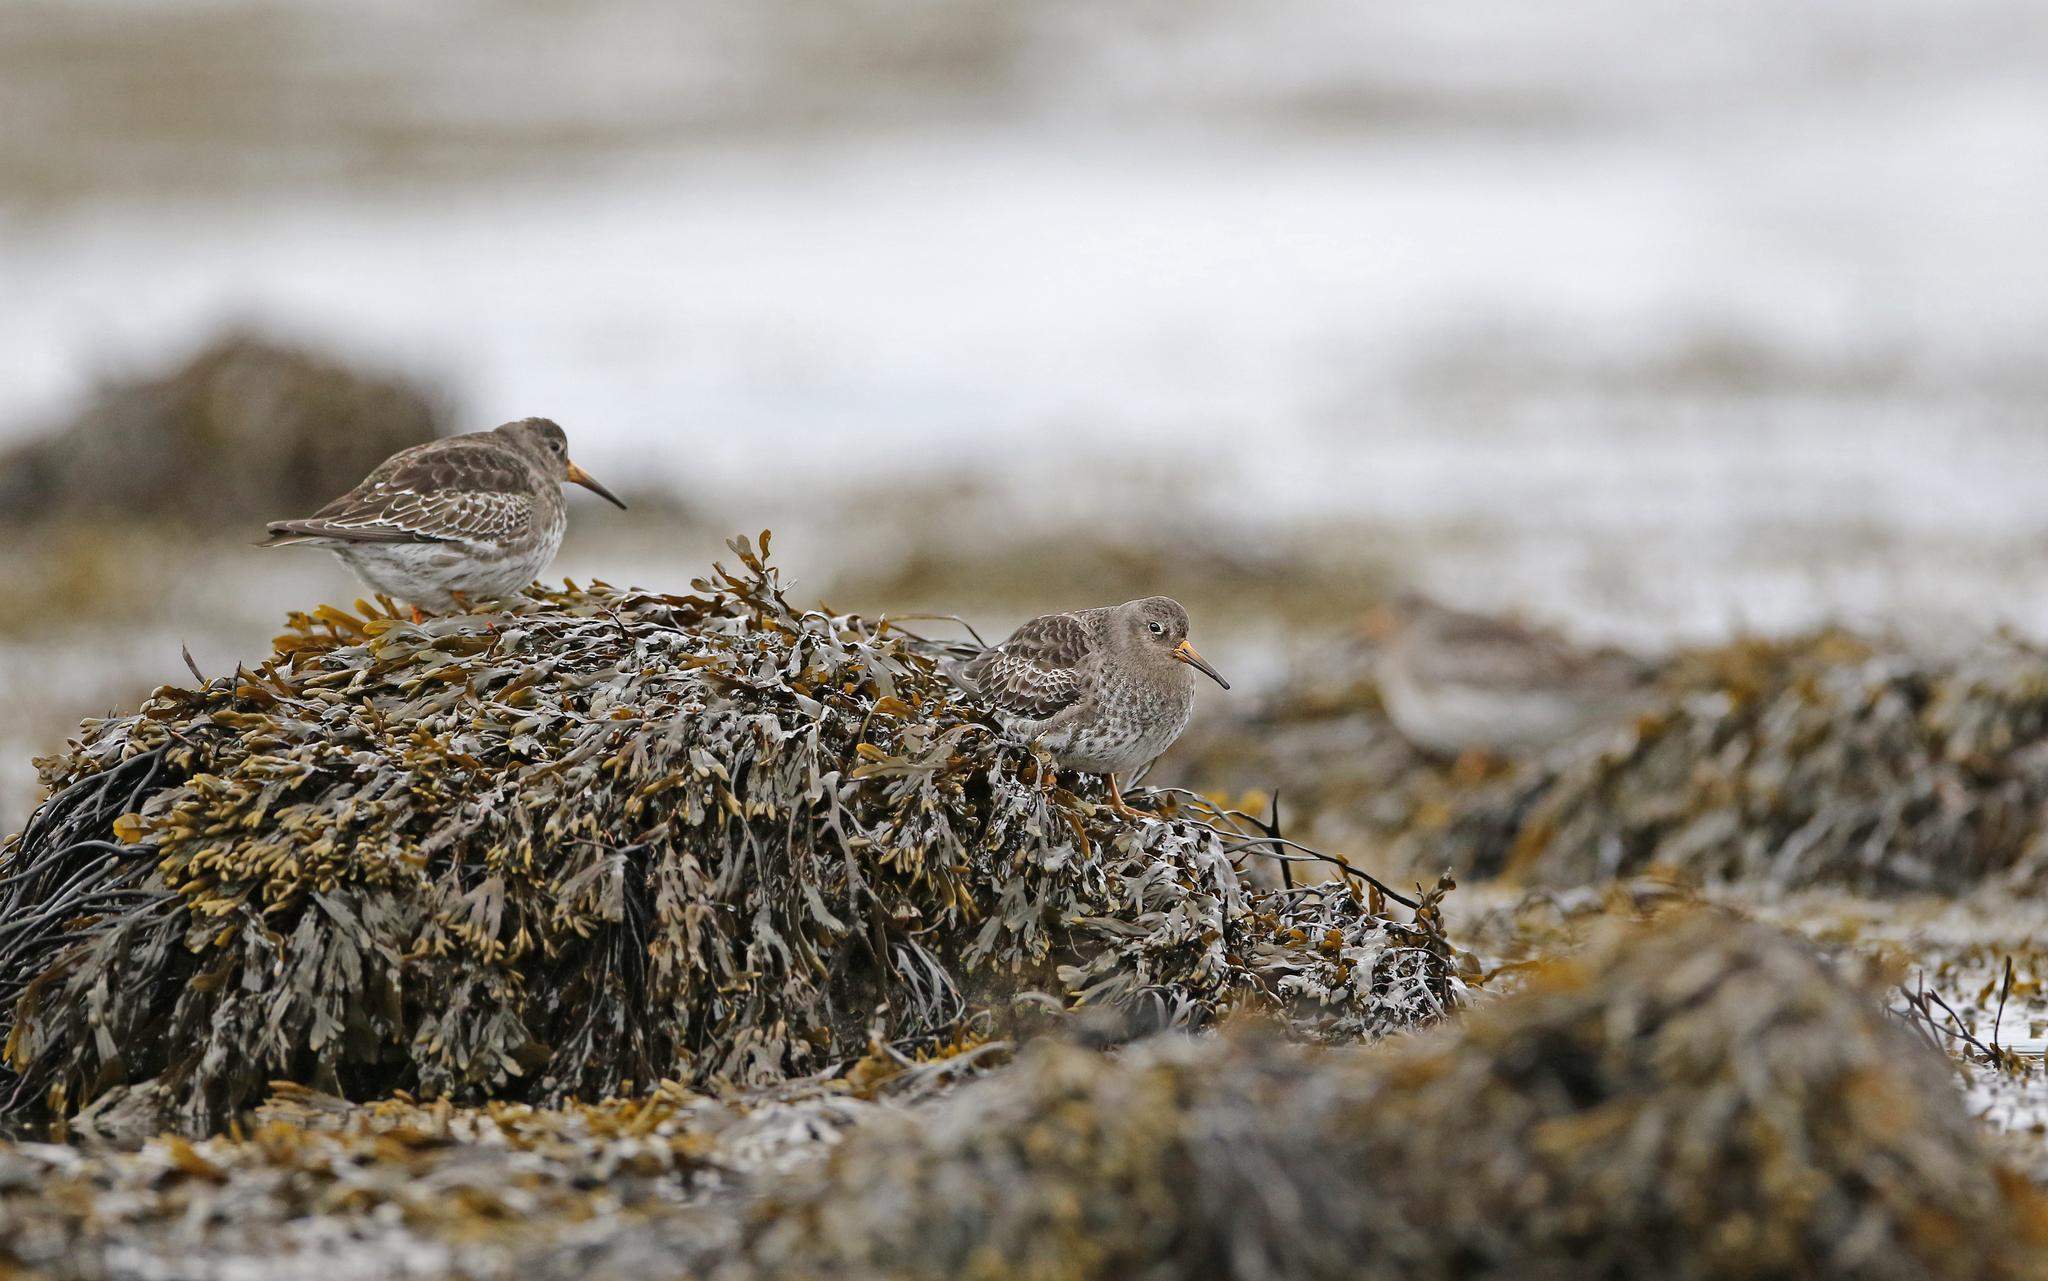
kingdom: Animalia
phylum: Chordata
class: Aves
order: Charadriiformes
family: Scolopacidae
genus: Calidris
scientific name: Calidris maritima
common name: Purple sandpiper
